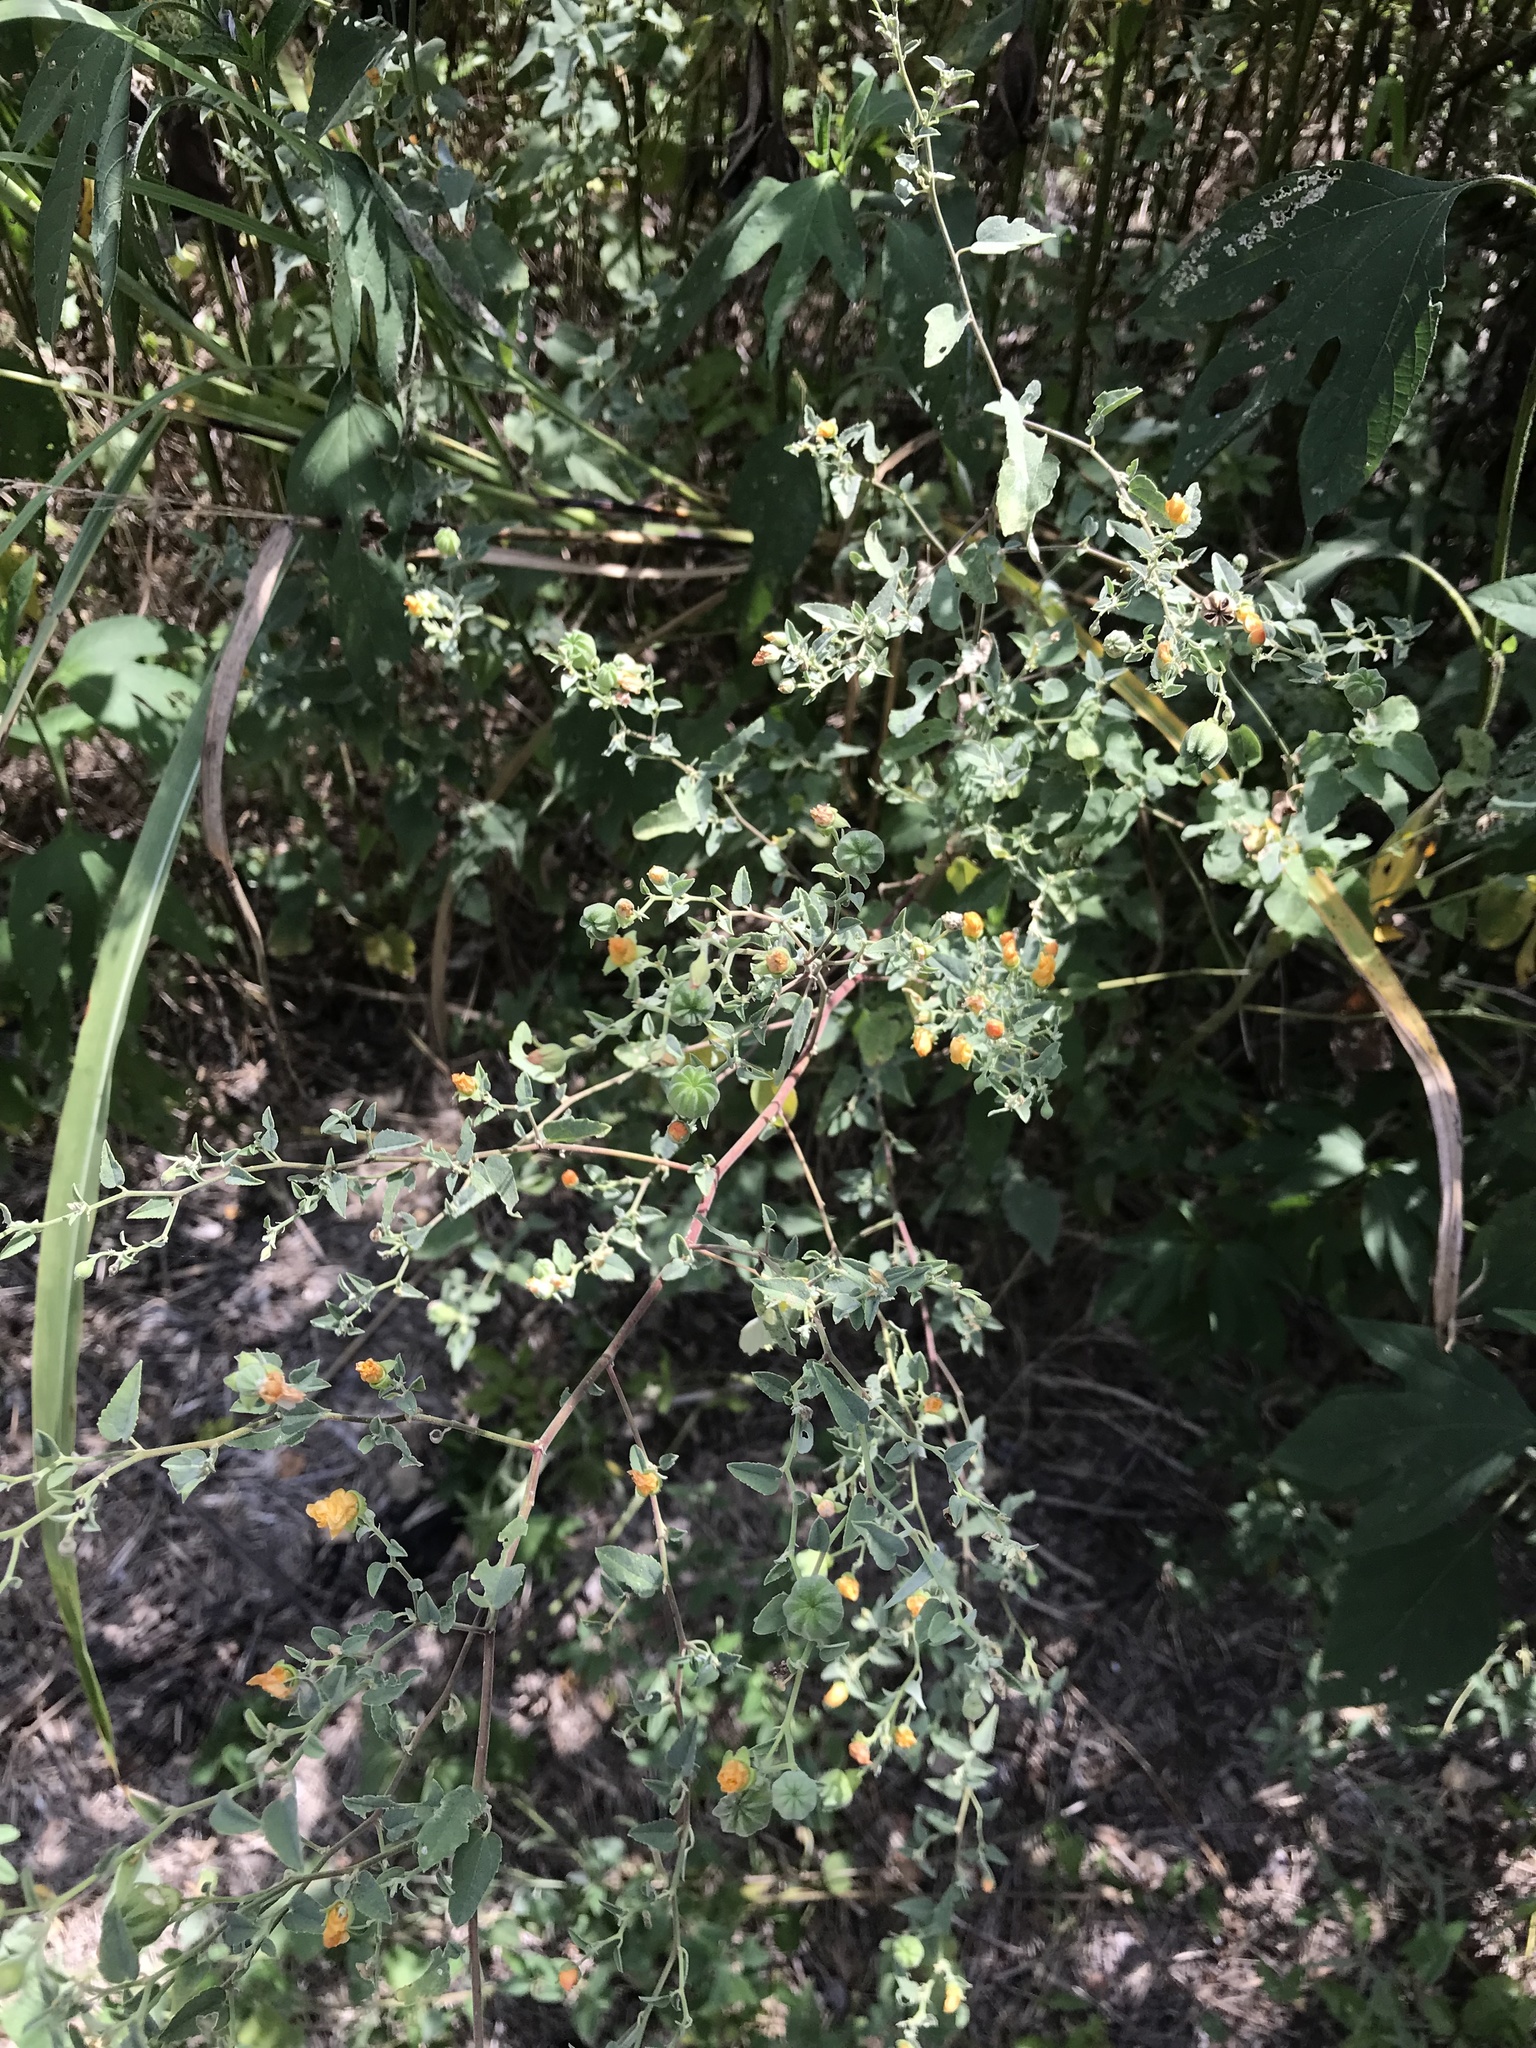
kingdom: Plantae
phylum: Tracheophyta
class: Magnoliopsida
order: Malvales
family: Malvaceae
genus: Abutilon
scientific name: Abutilon fruticosum
